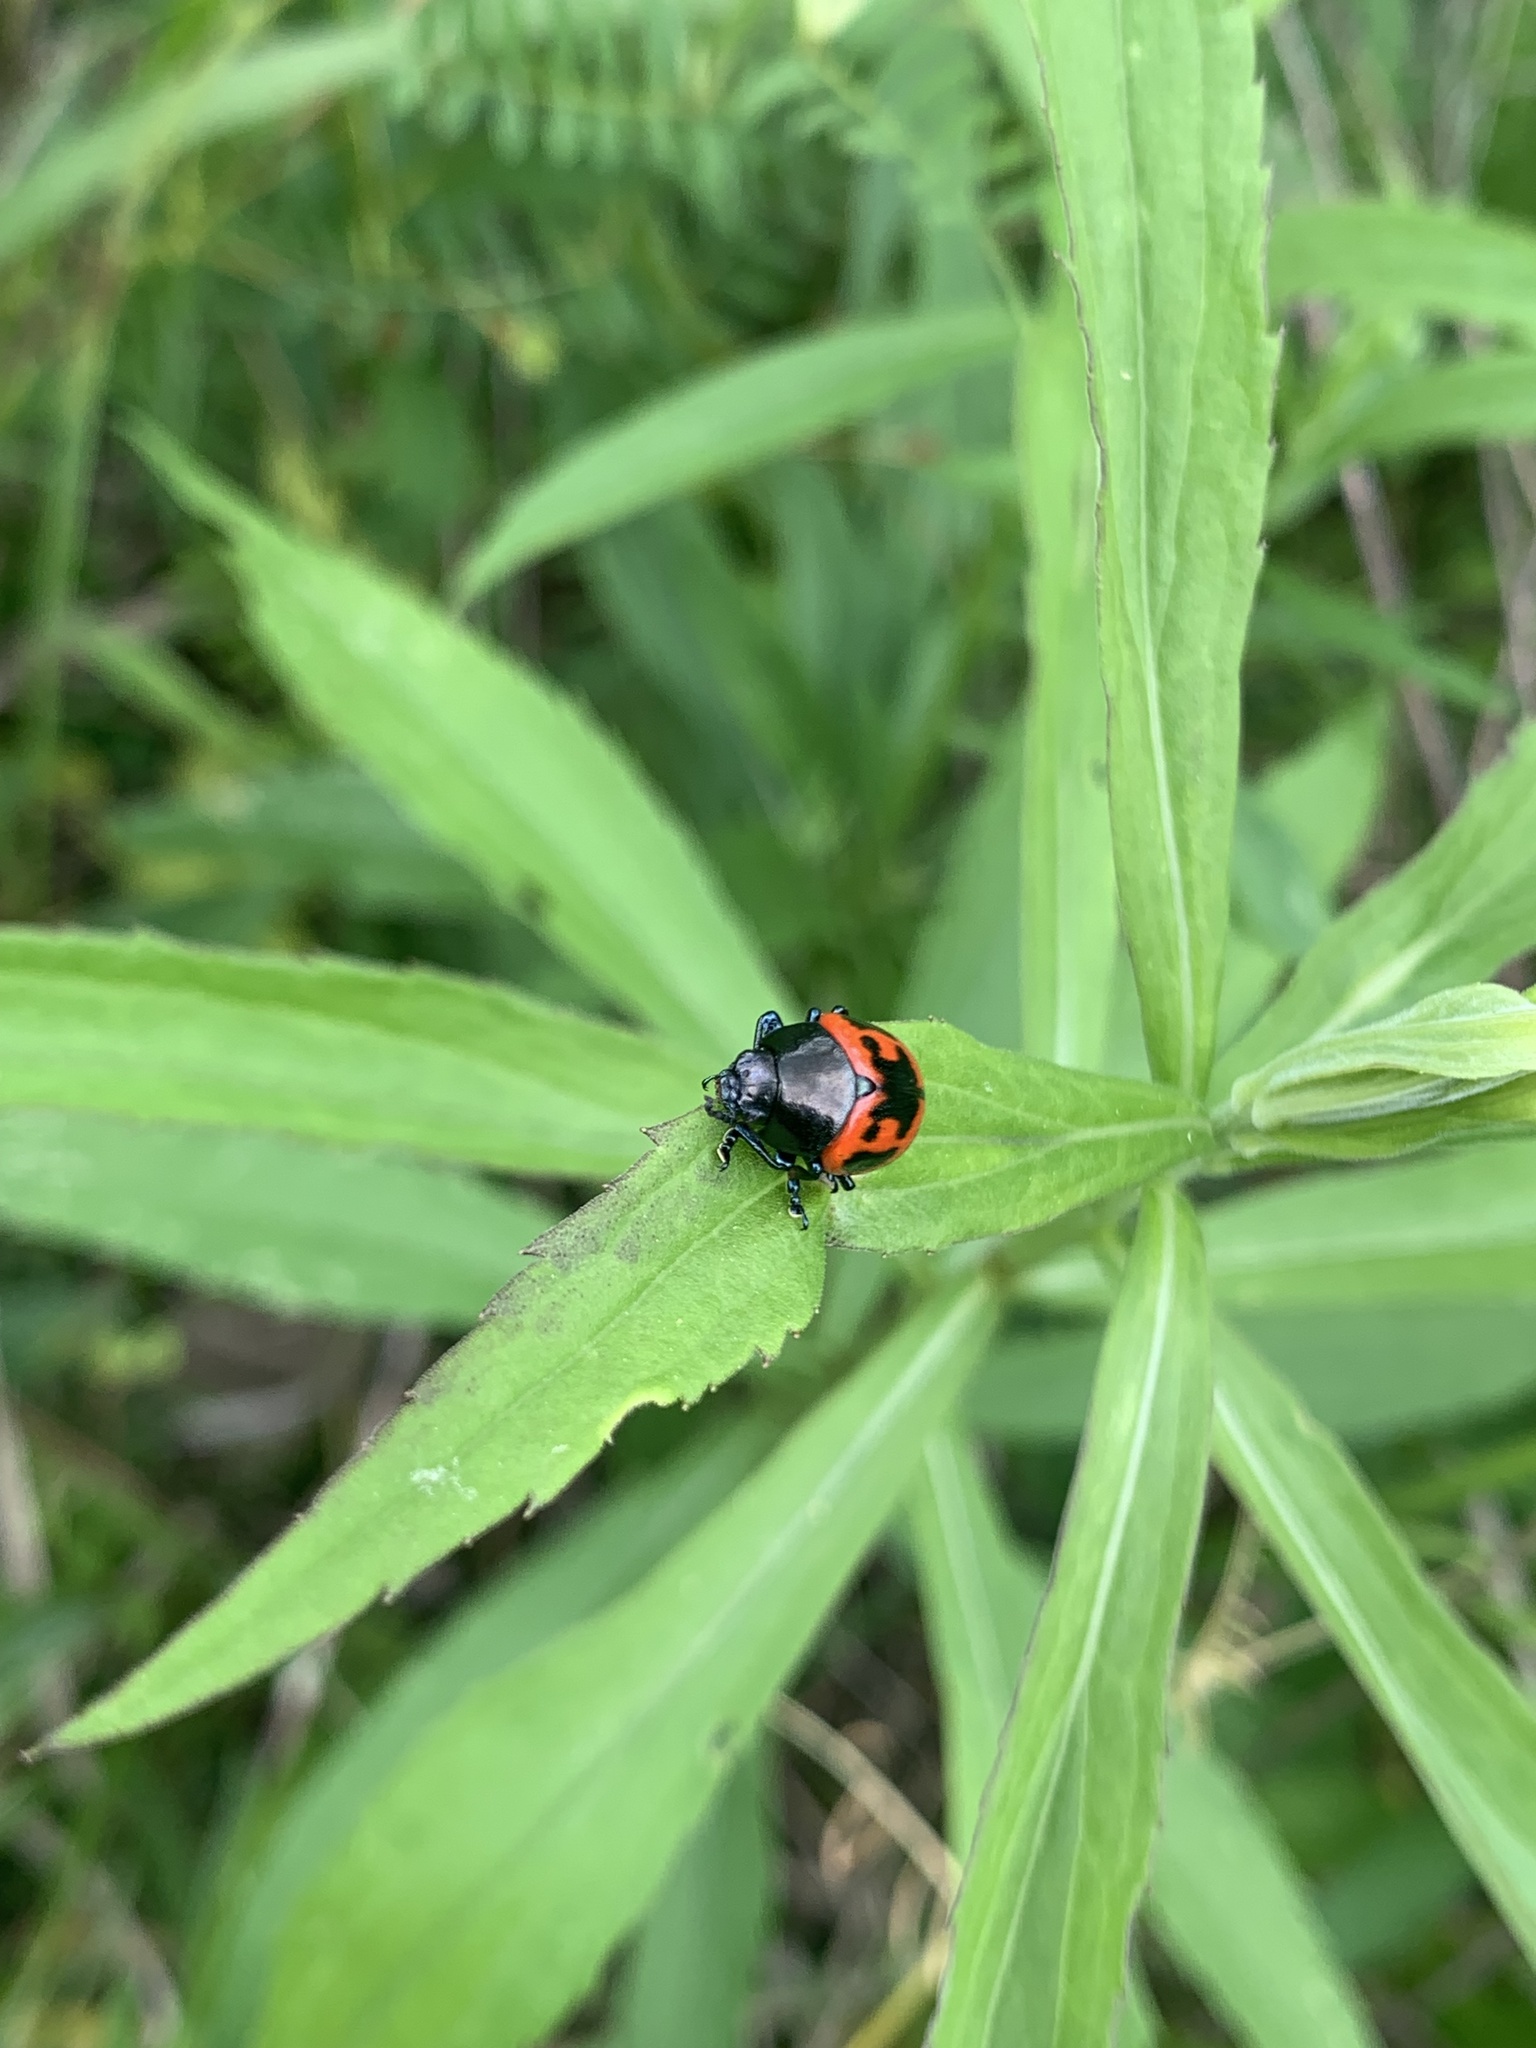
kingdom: Animalia
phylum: Arthropoda
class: Insecta
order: Coleoptera
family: Chrysomelidae
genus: Labidomera
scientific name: Labidomera clivicollis
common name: Swamp milkweed leaf beetle
